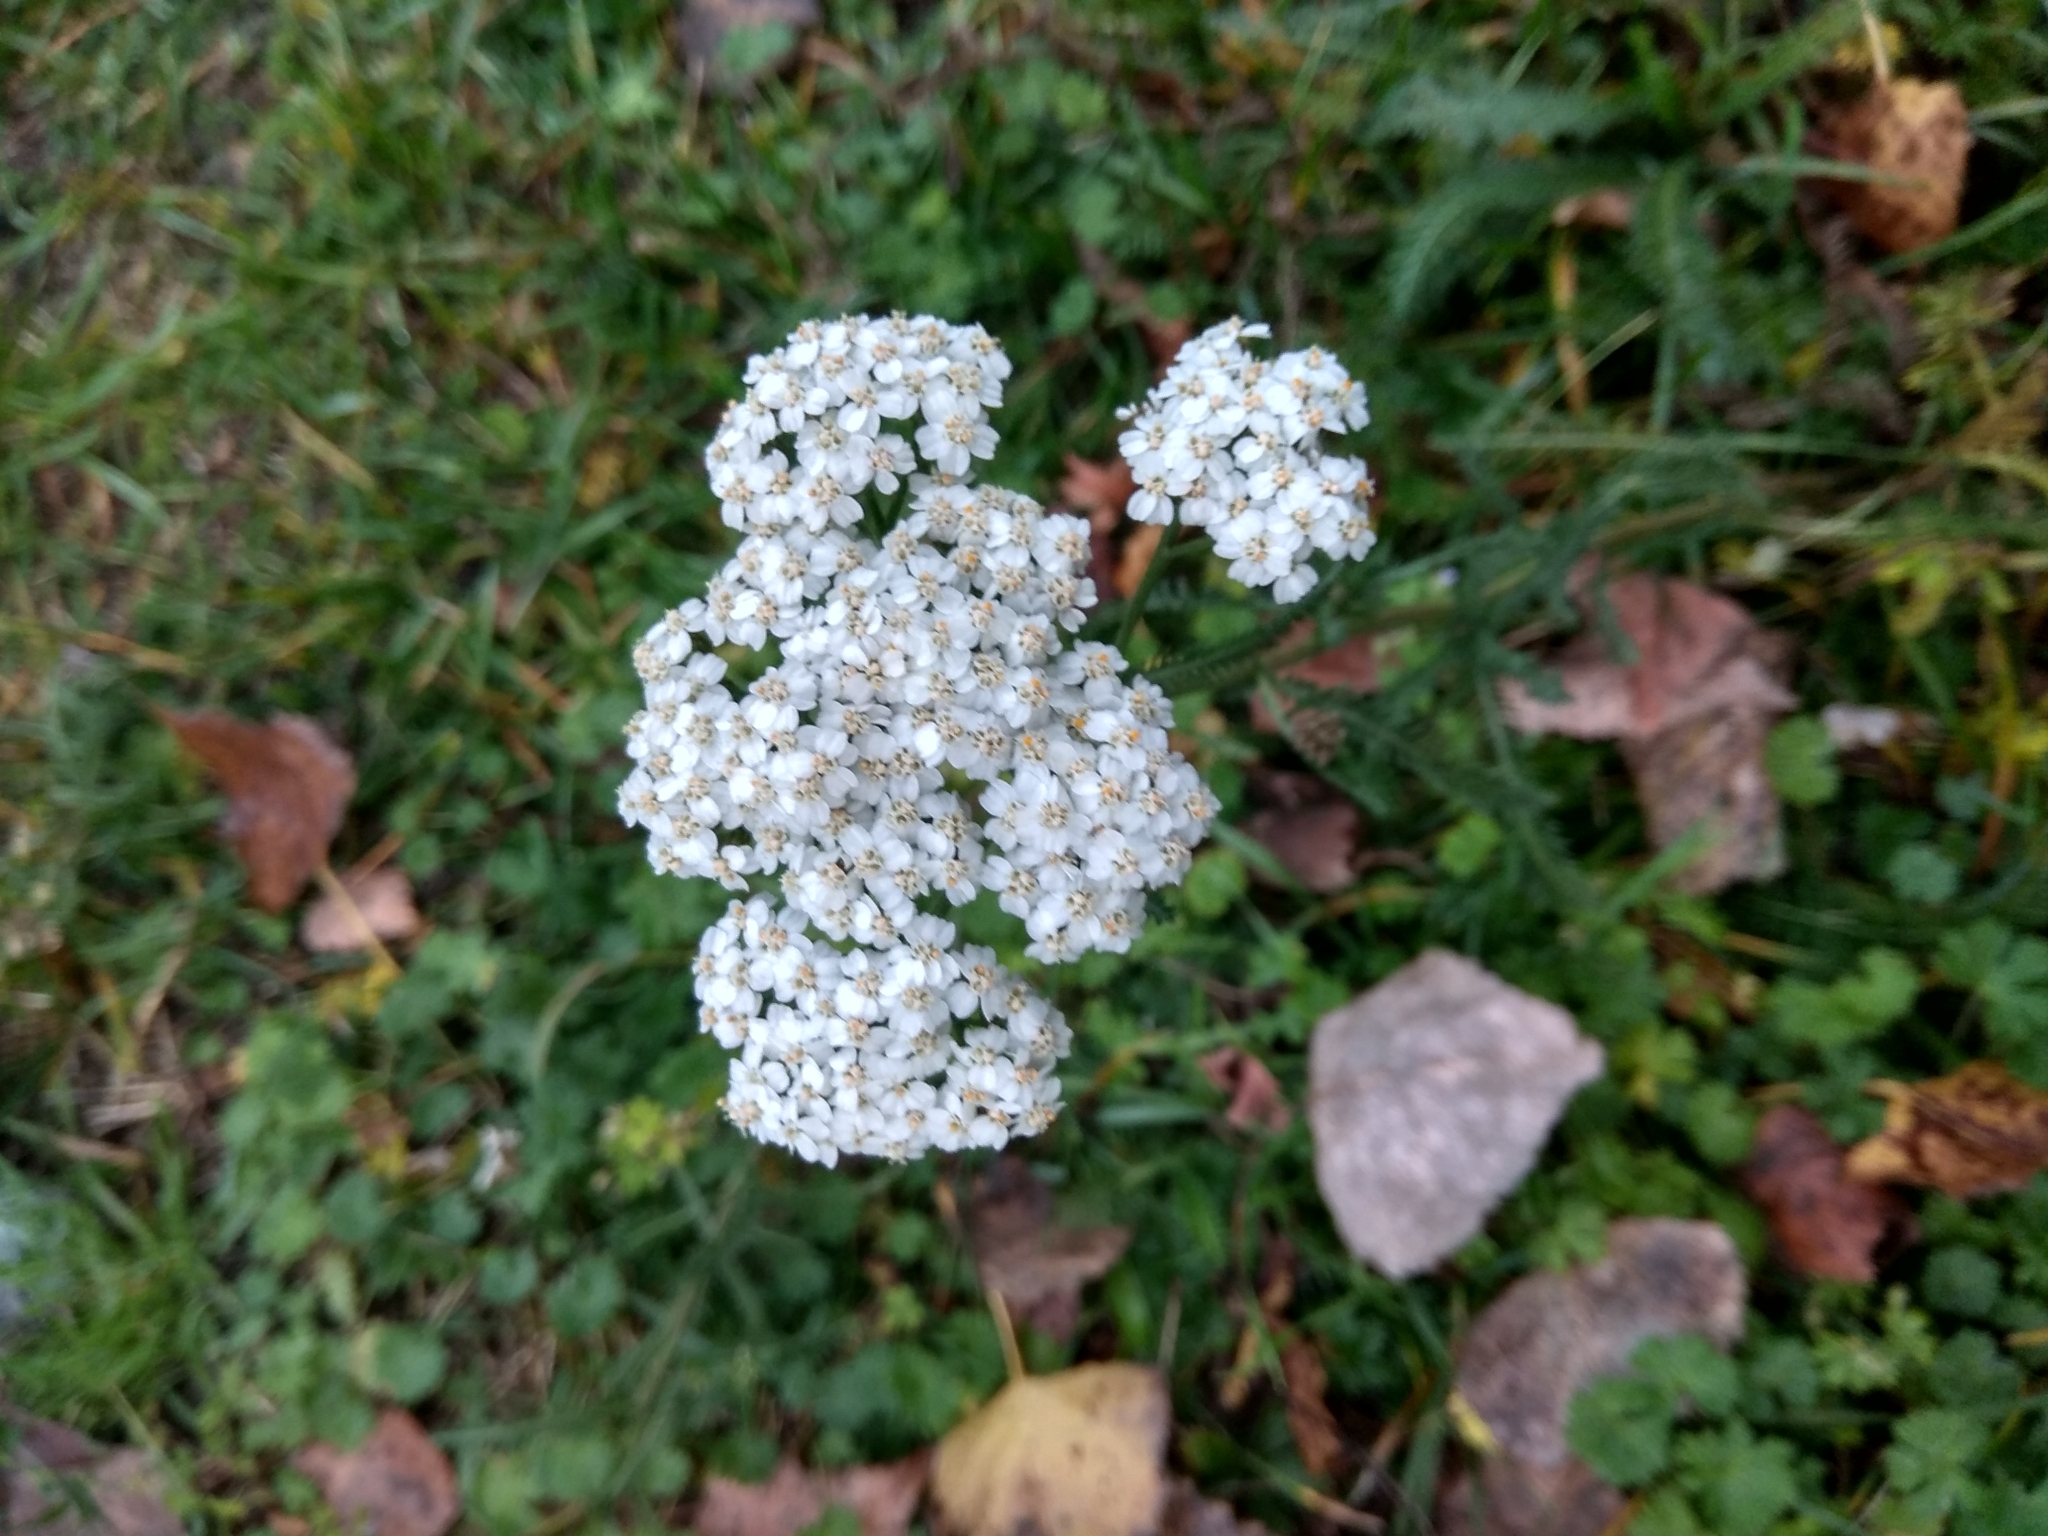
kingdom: Plantae
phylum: Tracheophyta
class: Magnoliopsida
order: Asterales
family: Asteraceae
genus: Achillea
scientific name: Achillea millefolium
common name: Yarrow
